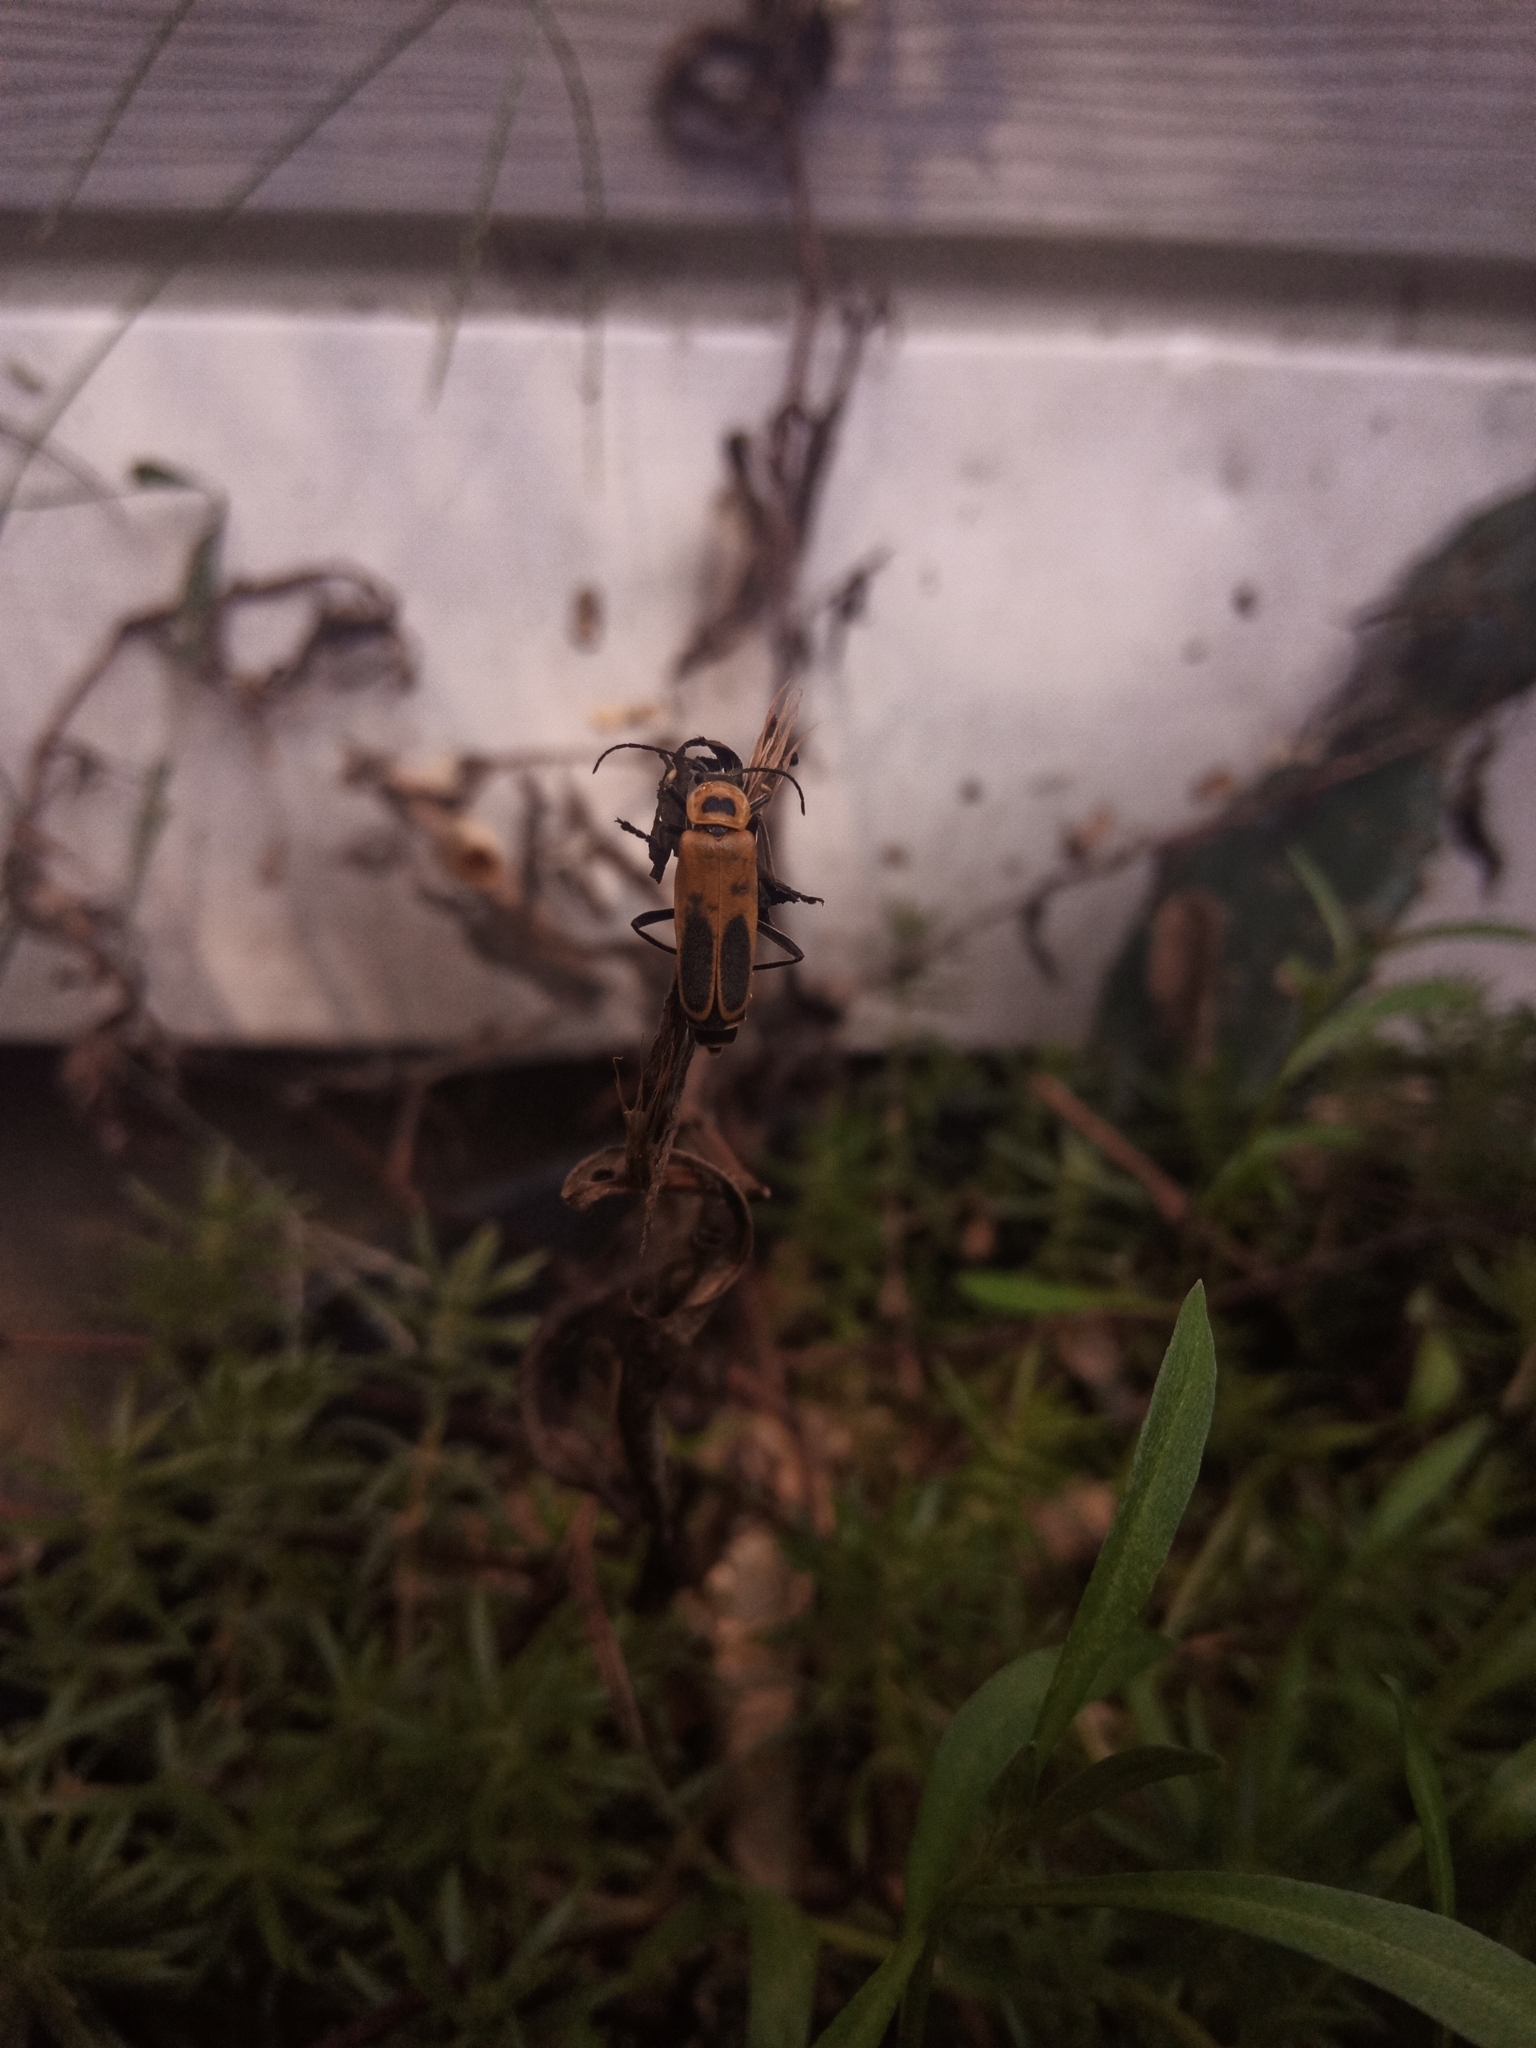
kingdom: Animalia
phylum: Arthropoda
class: Insecta
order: Coleoptera
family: Cantharidae
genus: Chauliognathus
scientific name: Chauliognathus pensylvanicus
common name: Goldenrod soldier beetle
